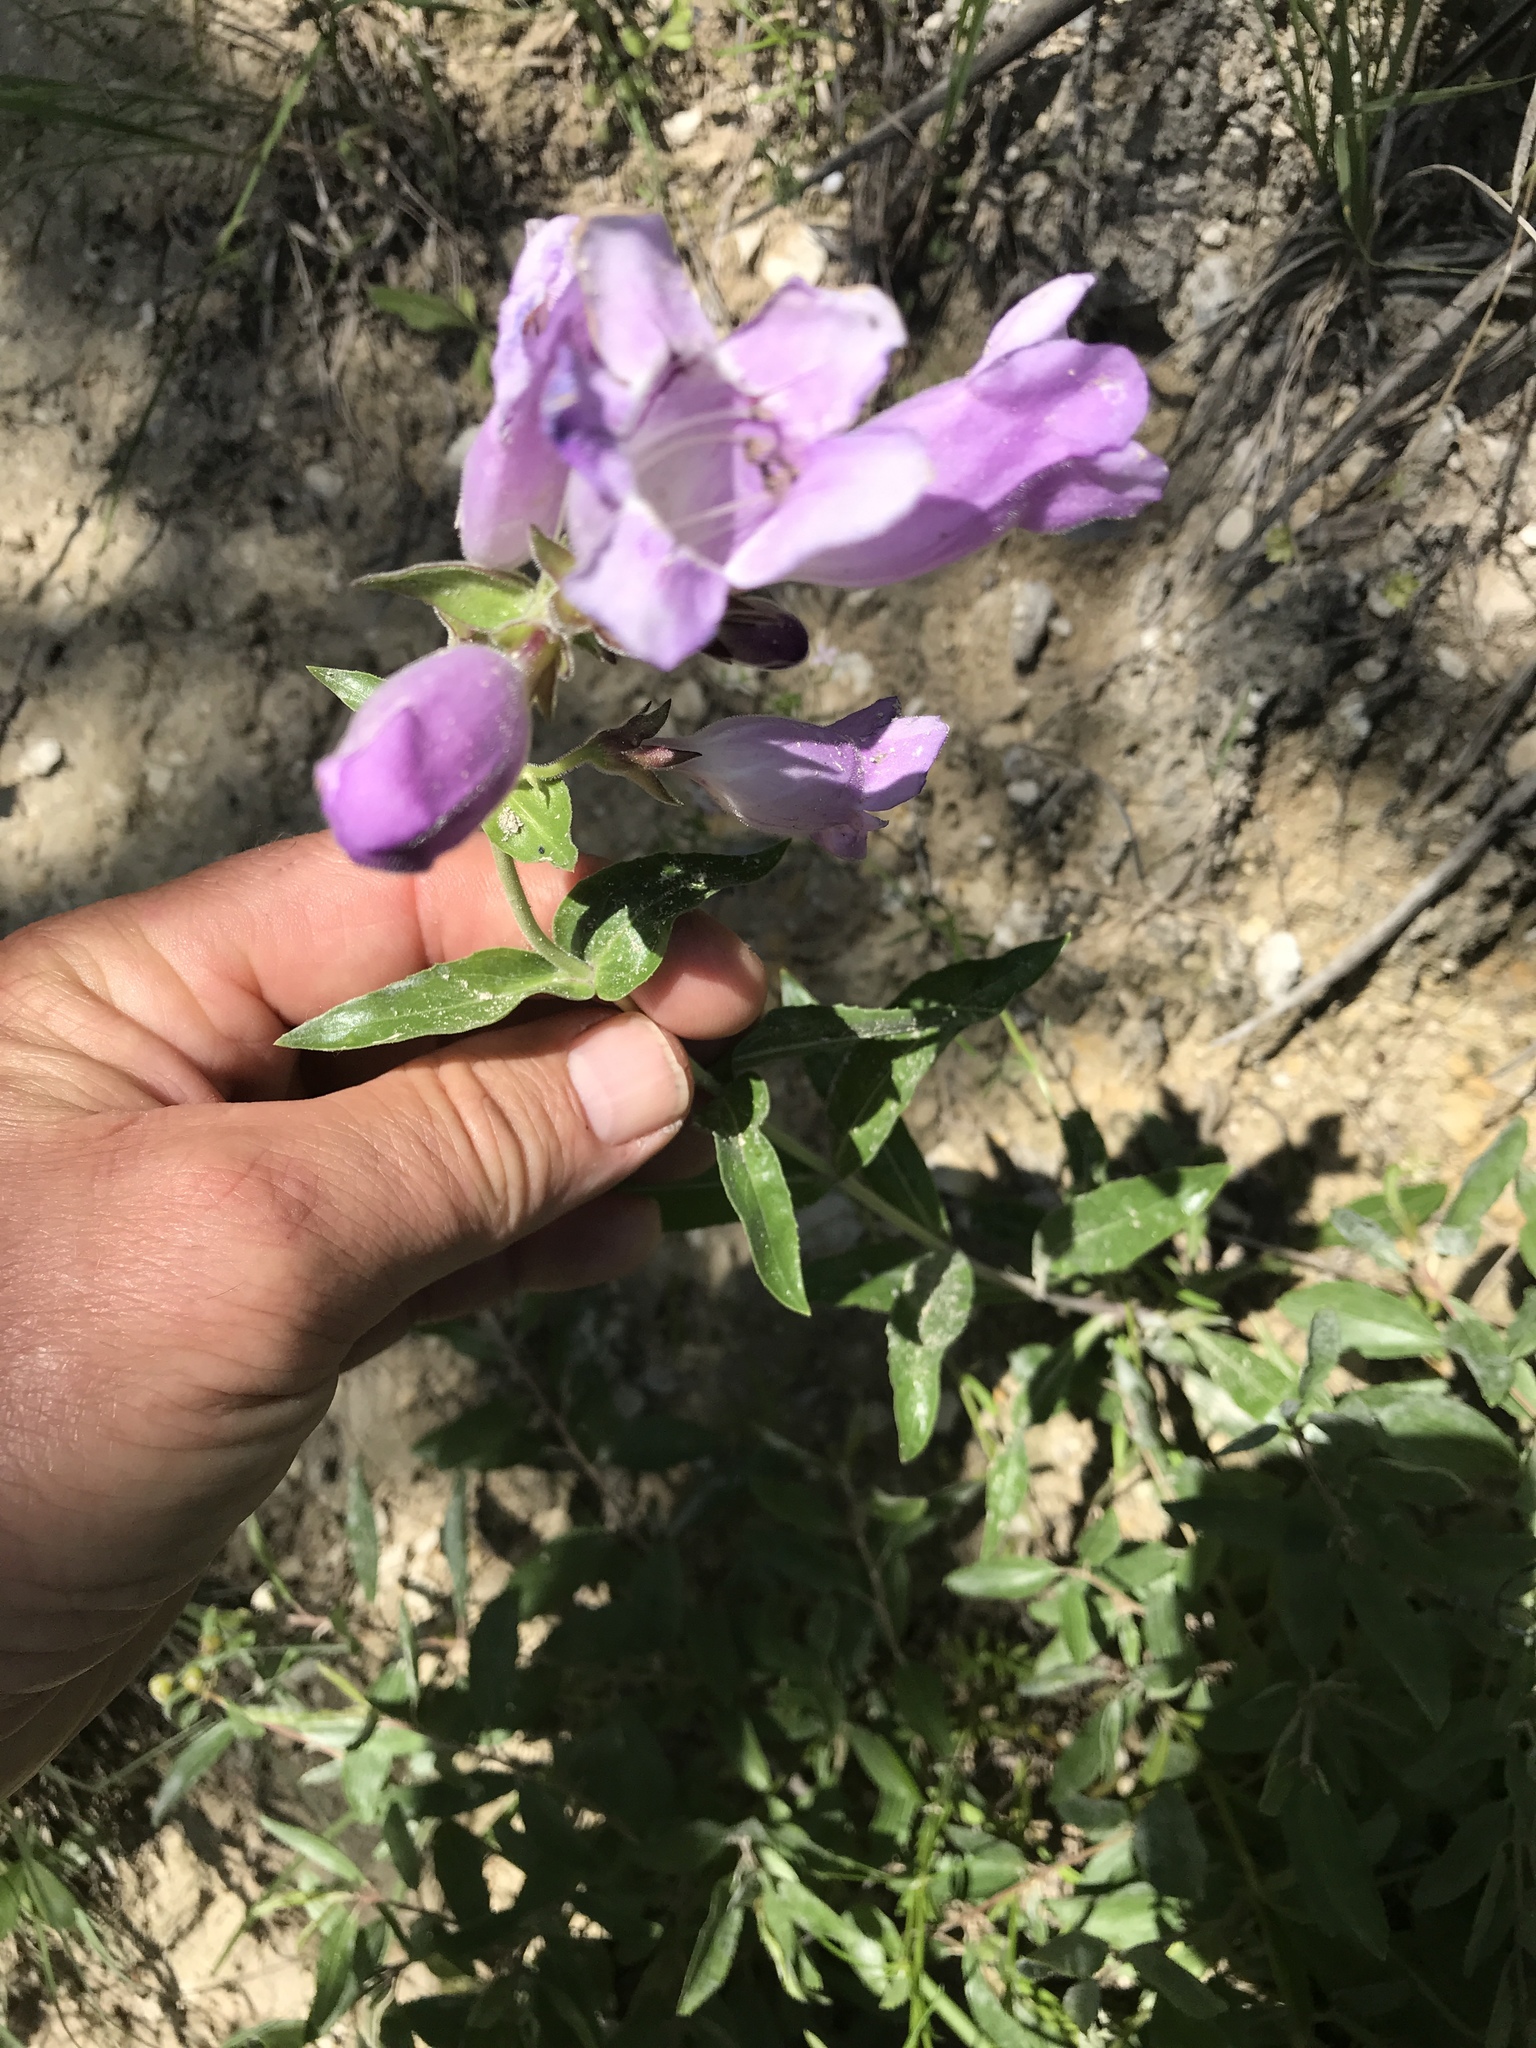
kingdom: Plantae
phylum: Tracheophyta
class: Magnoliopsida
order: Lamiales
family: Plantaginaceae
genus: Penstemon
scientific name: Penstemon cobaea
